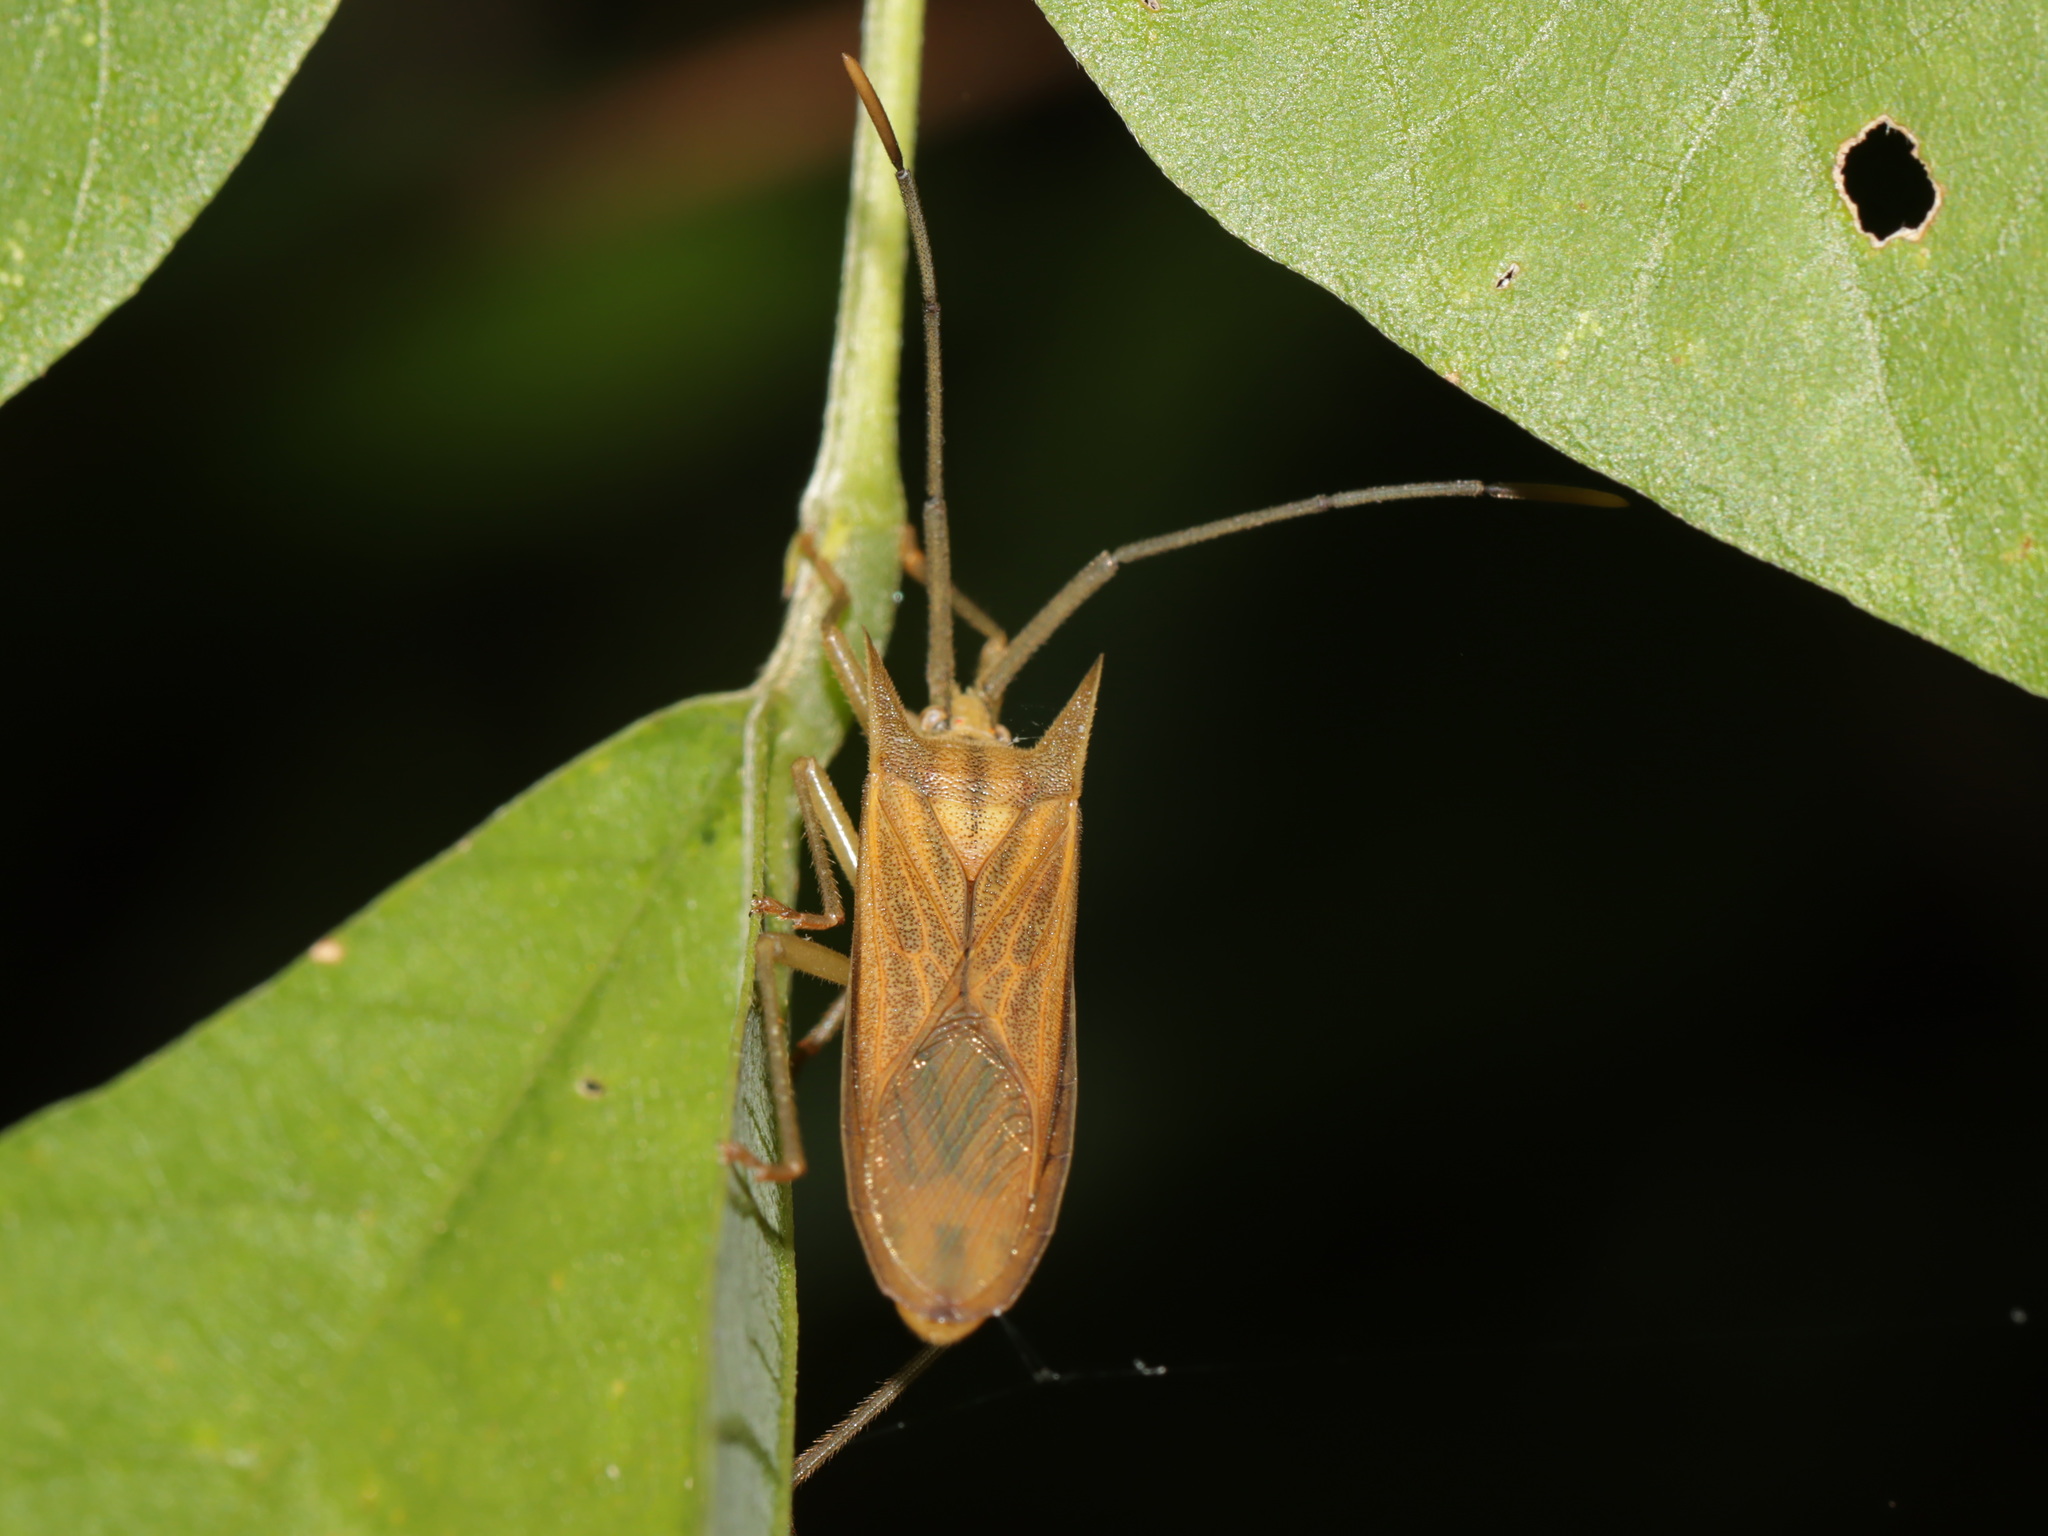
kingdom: Animalia
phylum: Arthropoda
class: Insecta
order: Hemiptera
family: Coreidae
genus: Fracastorius
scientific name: Fracastorius cornutus
